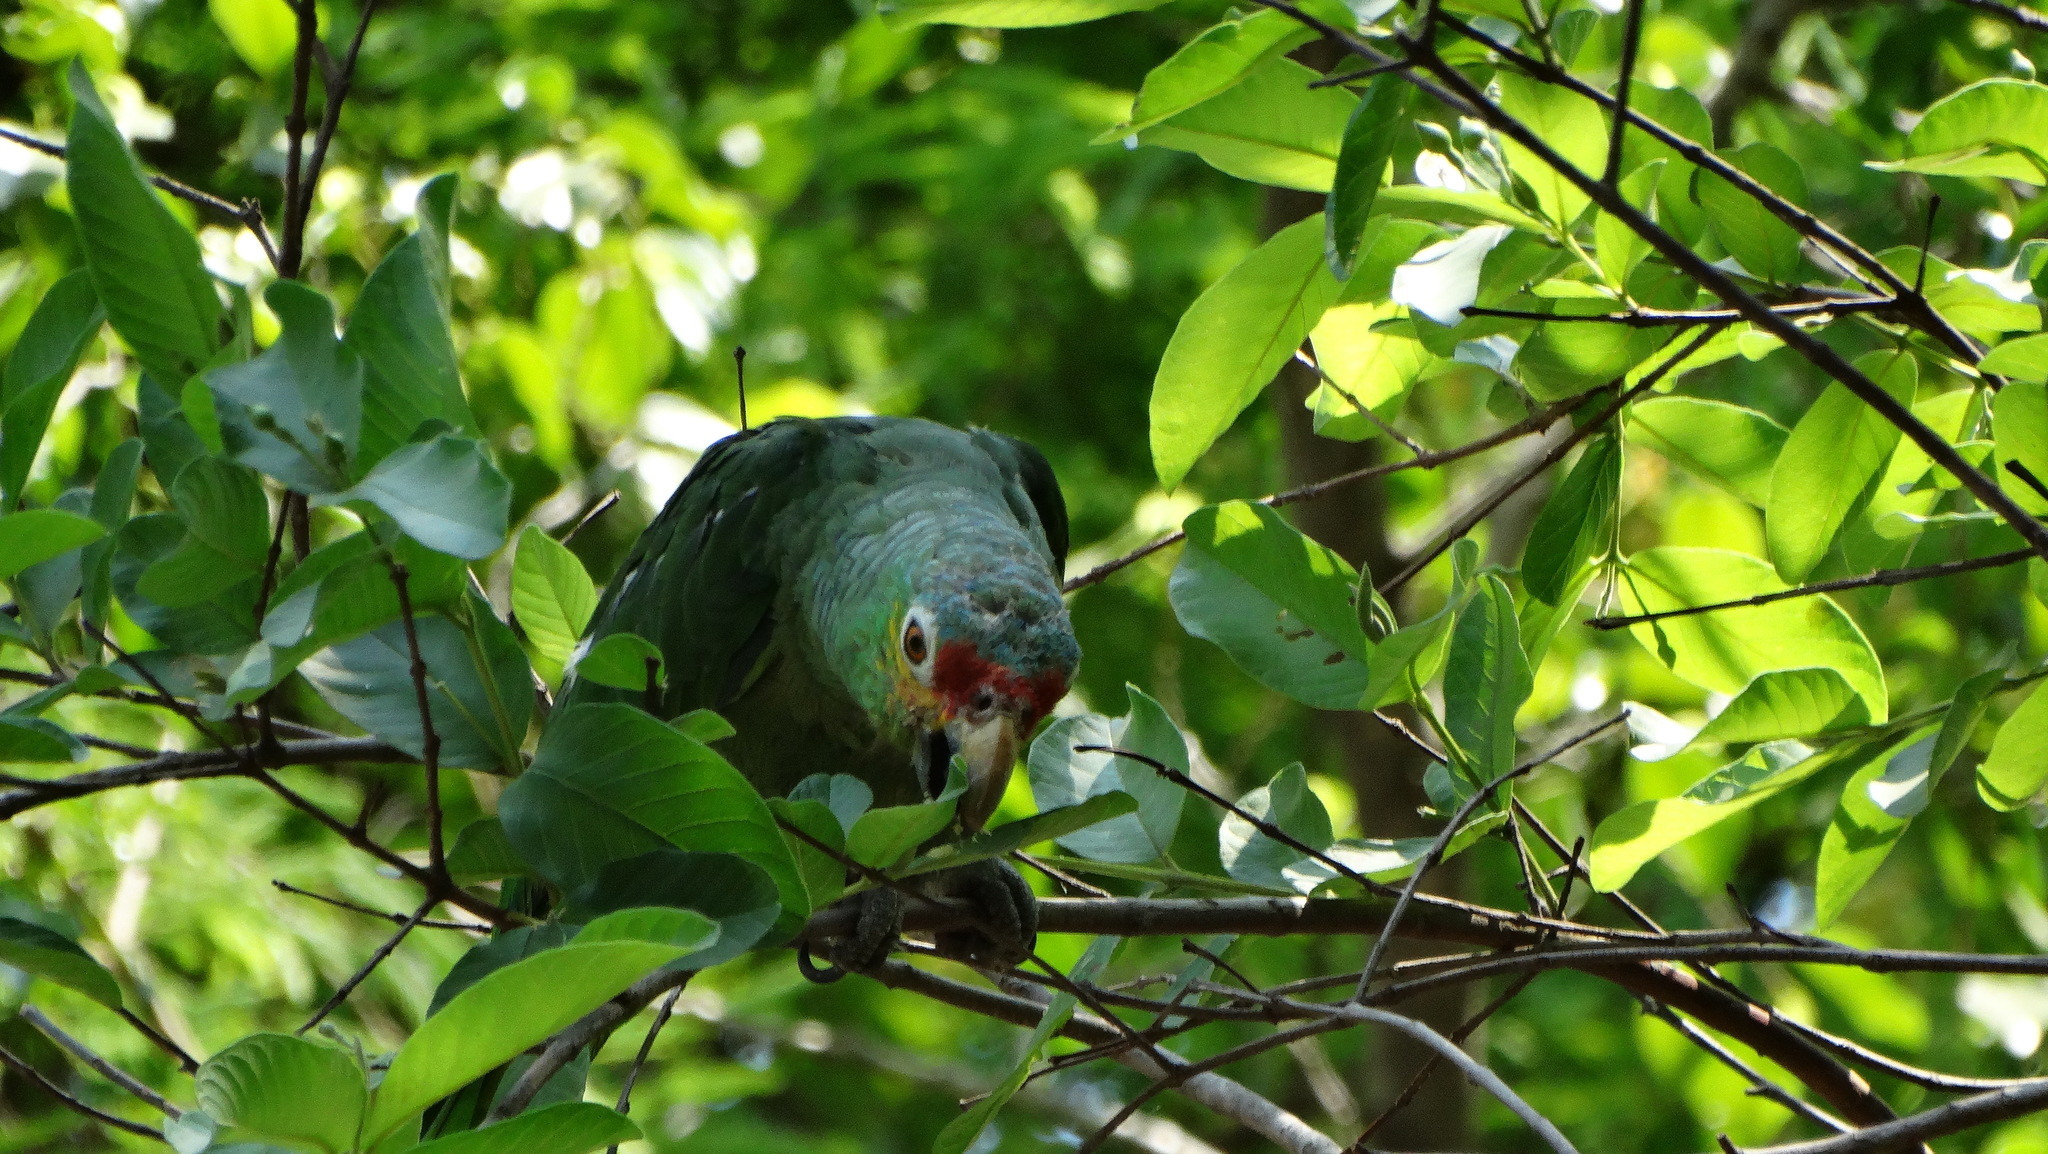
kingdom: Animalia
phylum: Chordata
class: Aves
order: Psittaciformes
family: Psittacidae
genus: Amazona
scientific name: Amazona autumnalis
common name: Red-lored amazon
